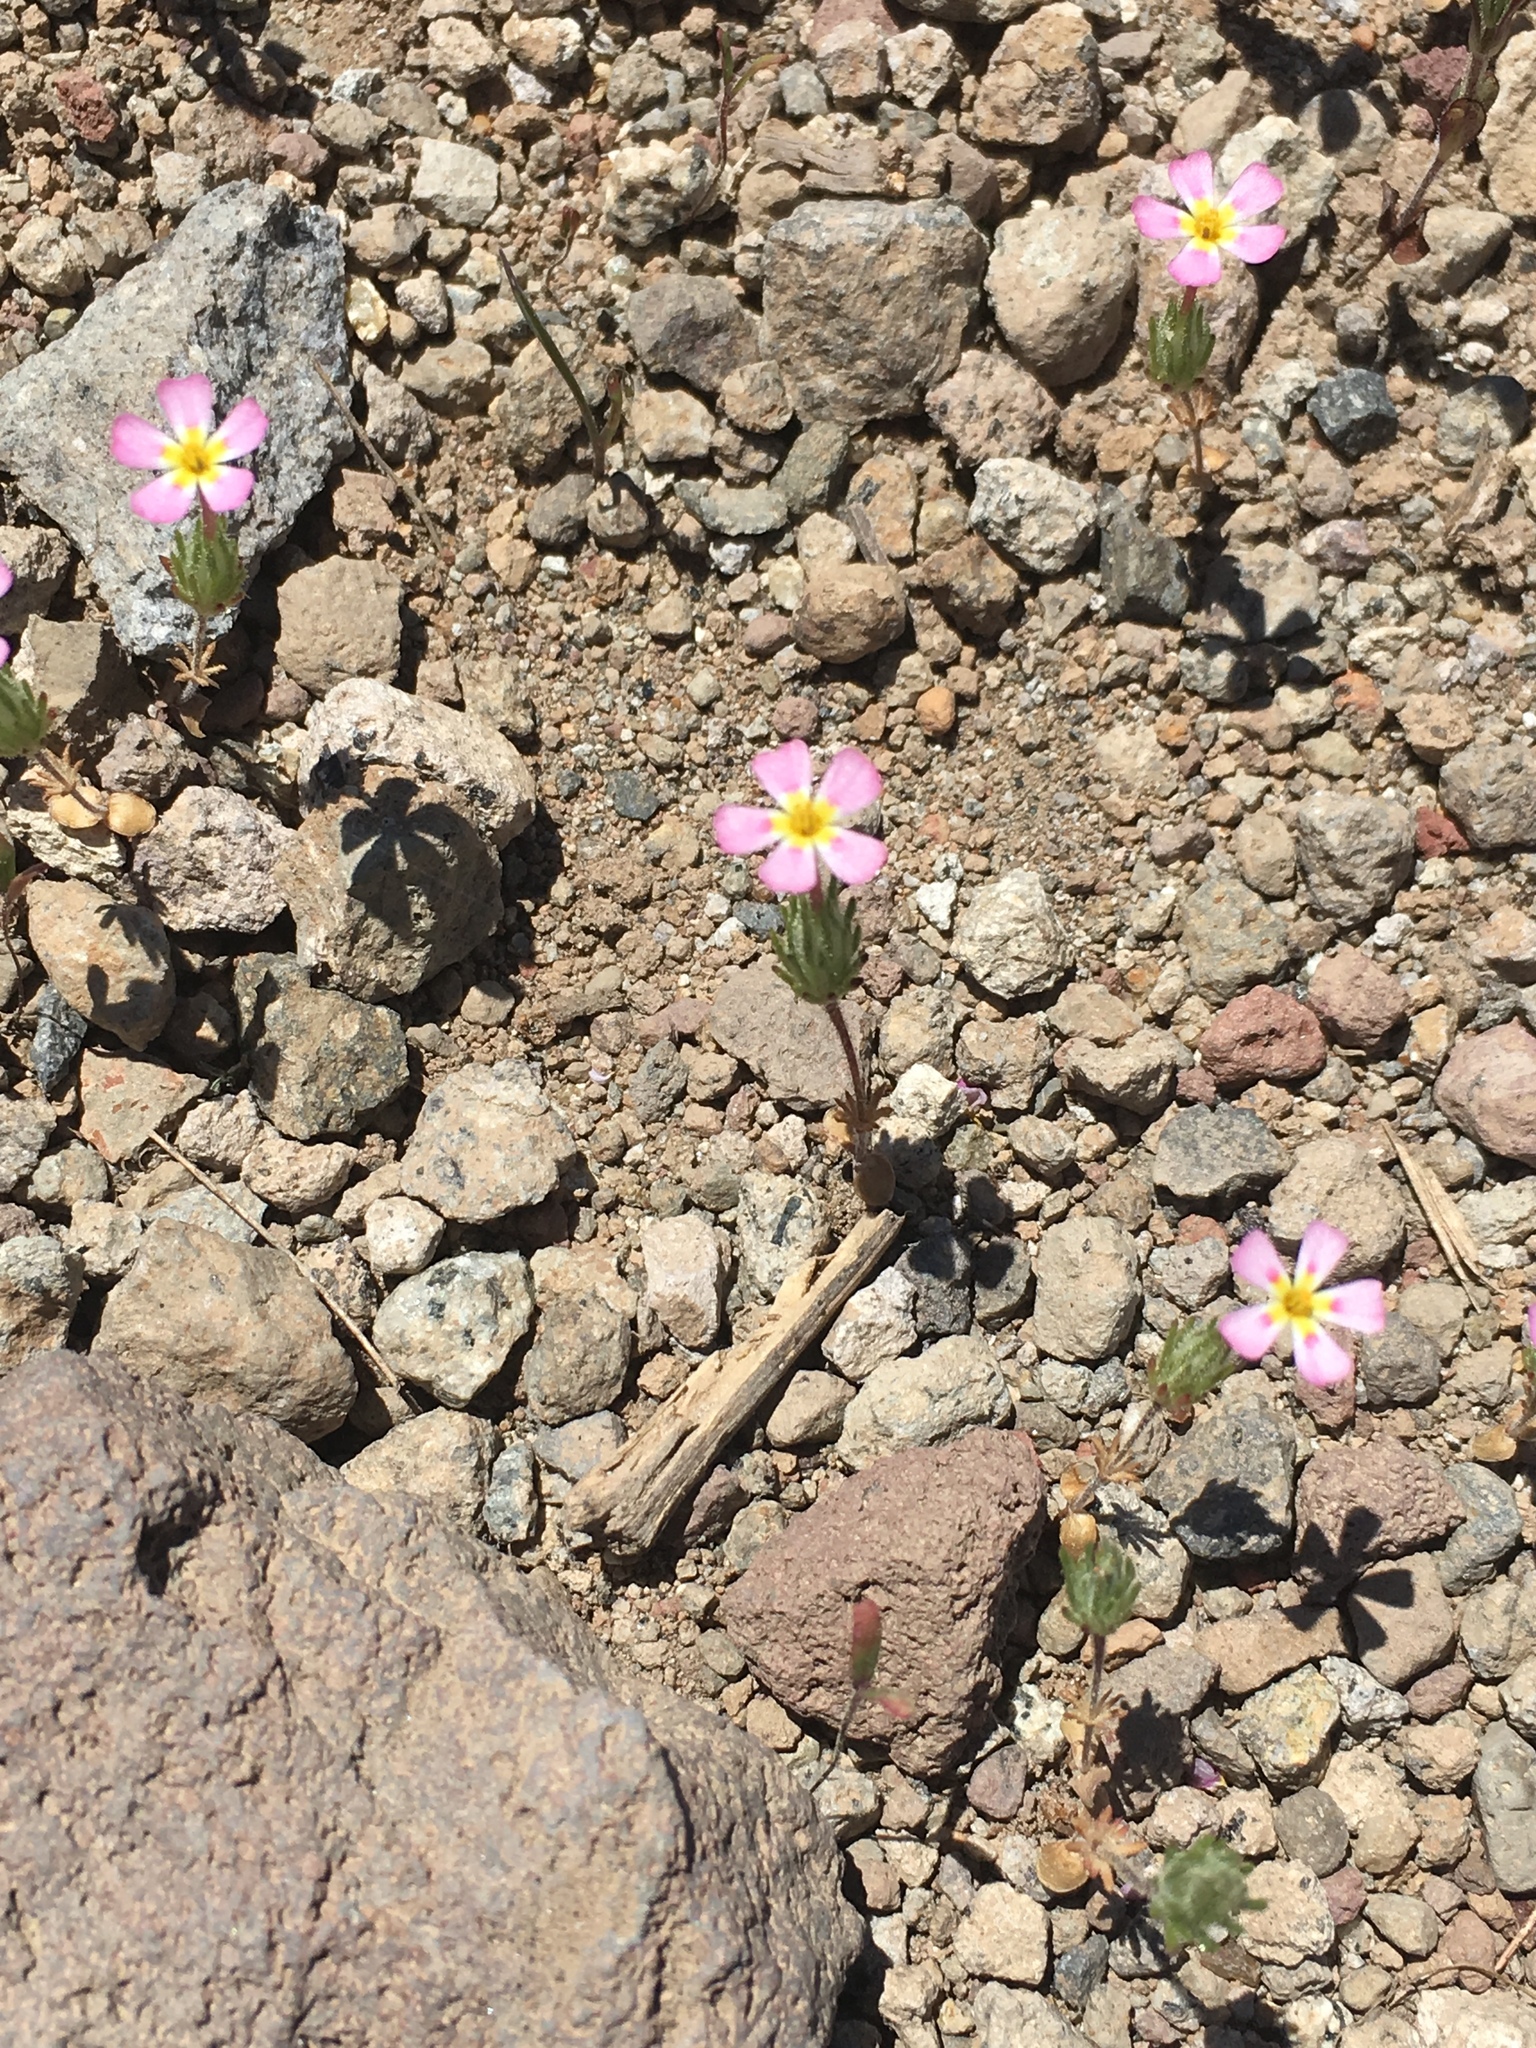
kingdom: Plantae
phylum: Tracheophyta
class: Magnoliopsida
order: Ericales
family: Polemoniaceae
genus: Leptosiphon
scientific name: Leptosiphon ciliatus
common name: Whiskerbrush
